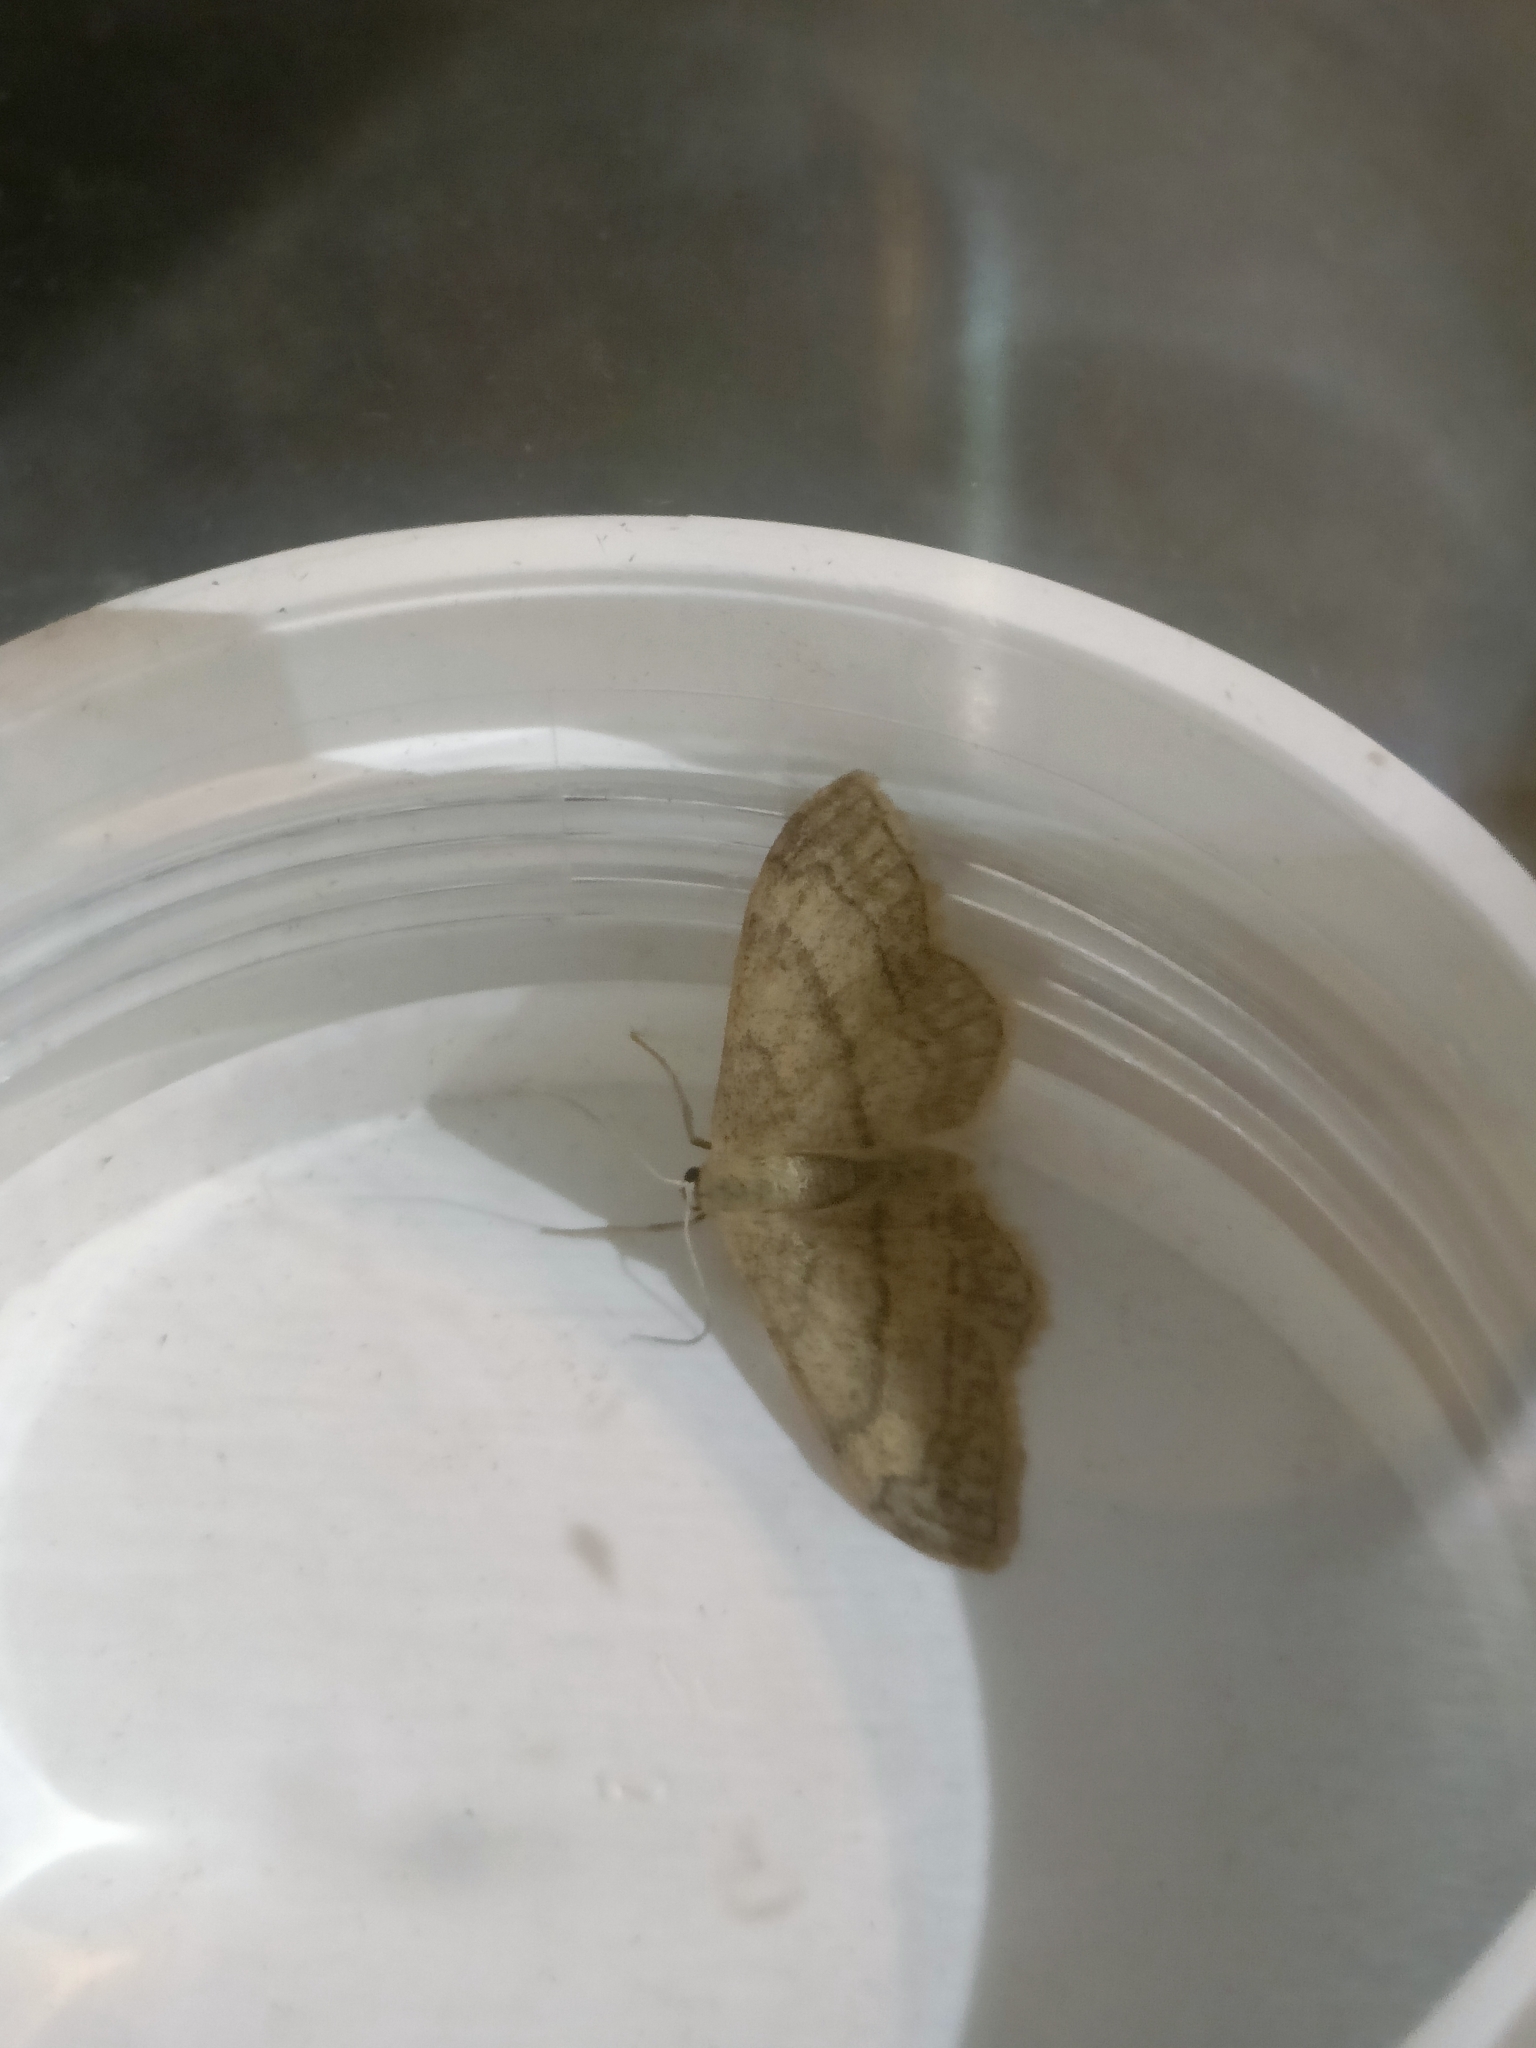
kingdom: Animalia
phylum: Arthropoda
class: Insecta
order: Lepidoptera
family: Geometridae
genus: Idaea
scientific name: Idaea aversata
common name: Riband wave
